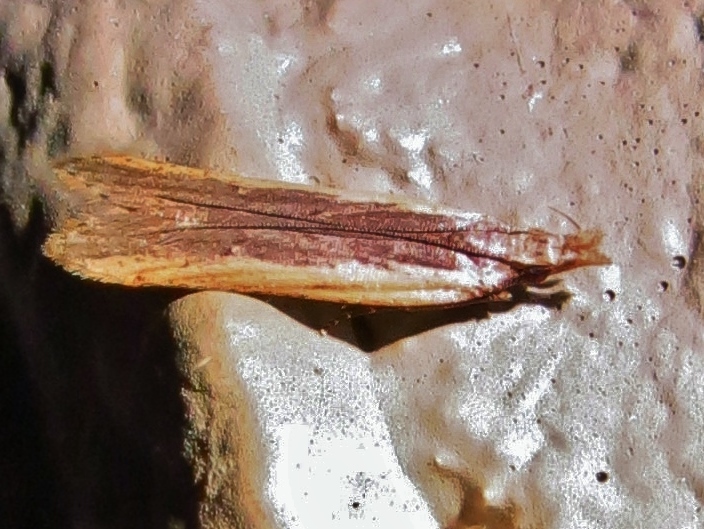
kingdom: Animalia
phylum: Arthropoda
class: Insecta
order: Lepidoptera
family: Gelechiidae
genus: Dichomeris
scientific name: Dichomeris ligulella
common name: Moth
